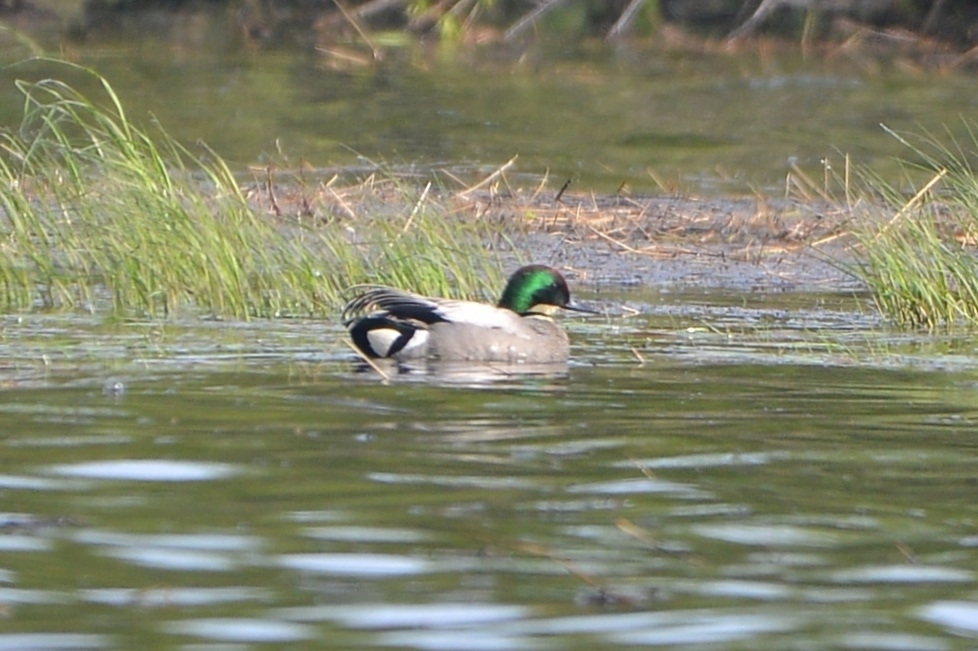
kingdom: Animalia
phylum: Chordata
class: Aves
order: Anseriformes
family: Anatidae
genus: Mareca
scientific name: Mareca falcata
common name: Falcated duck
